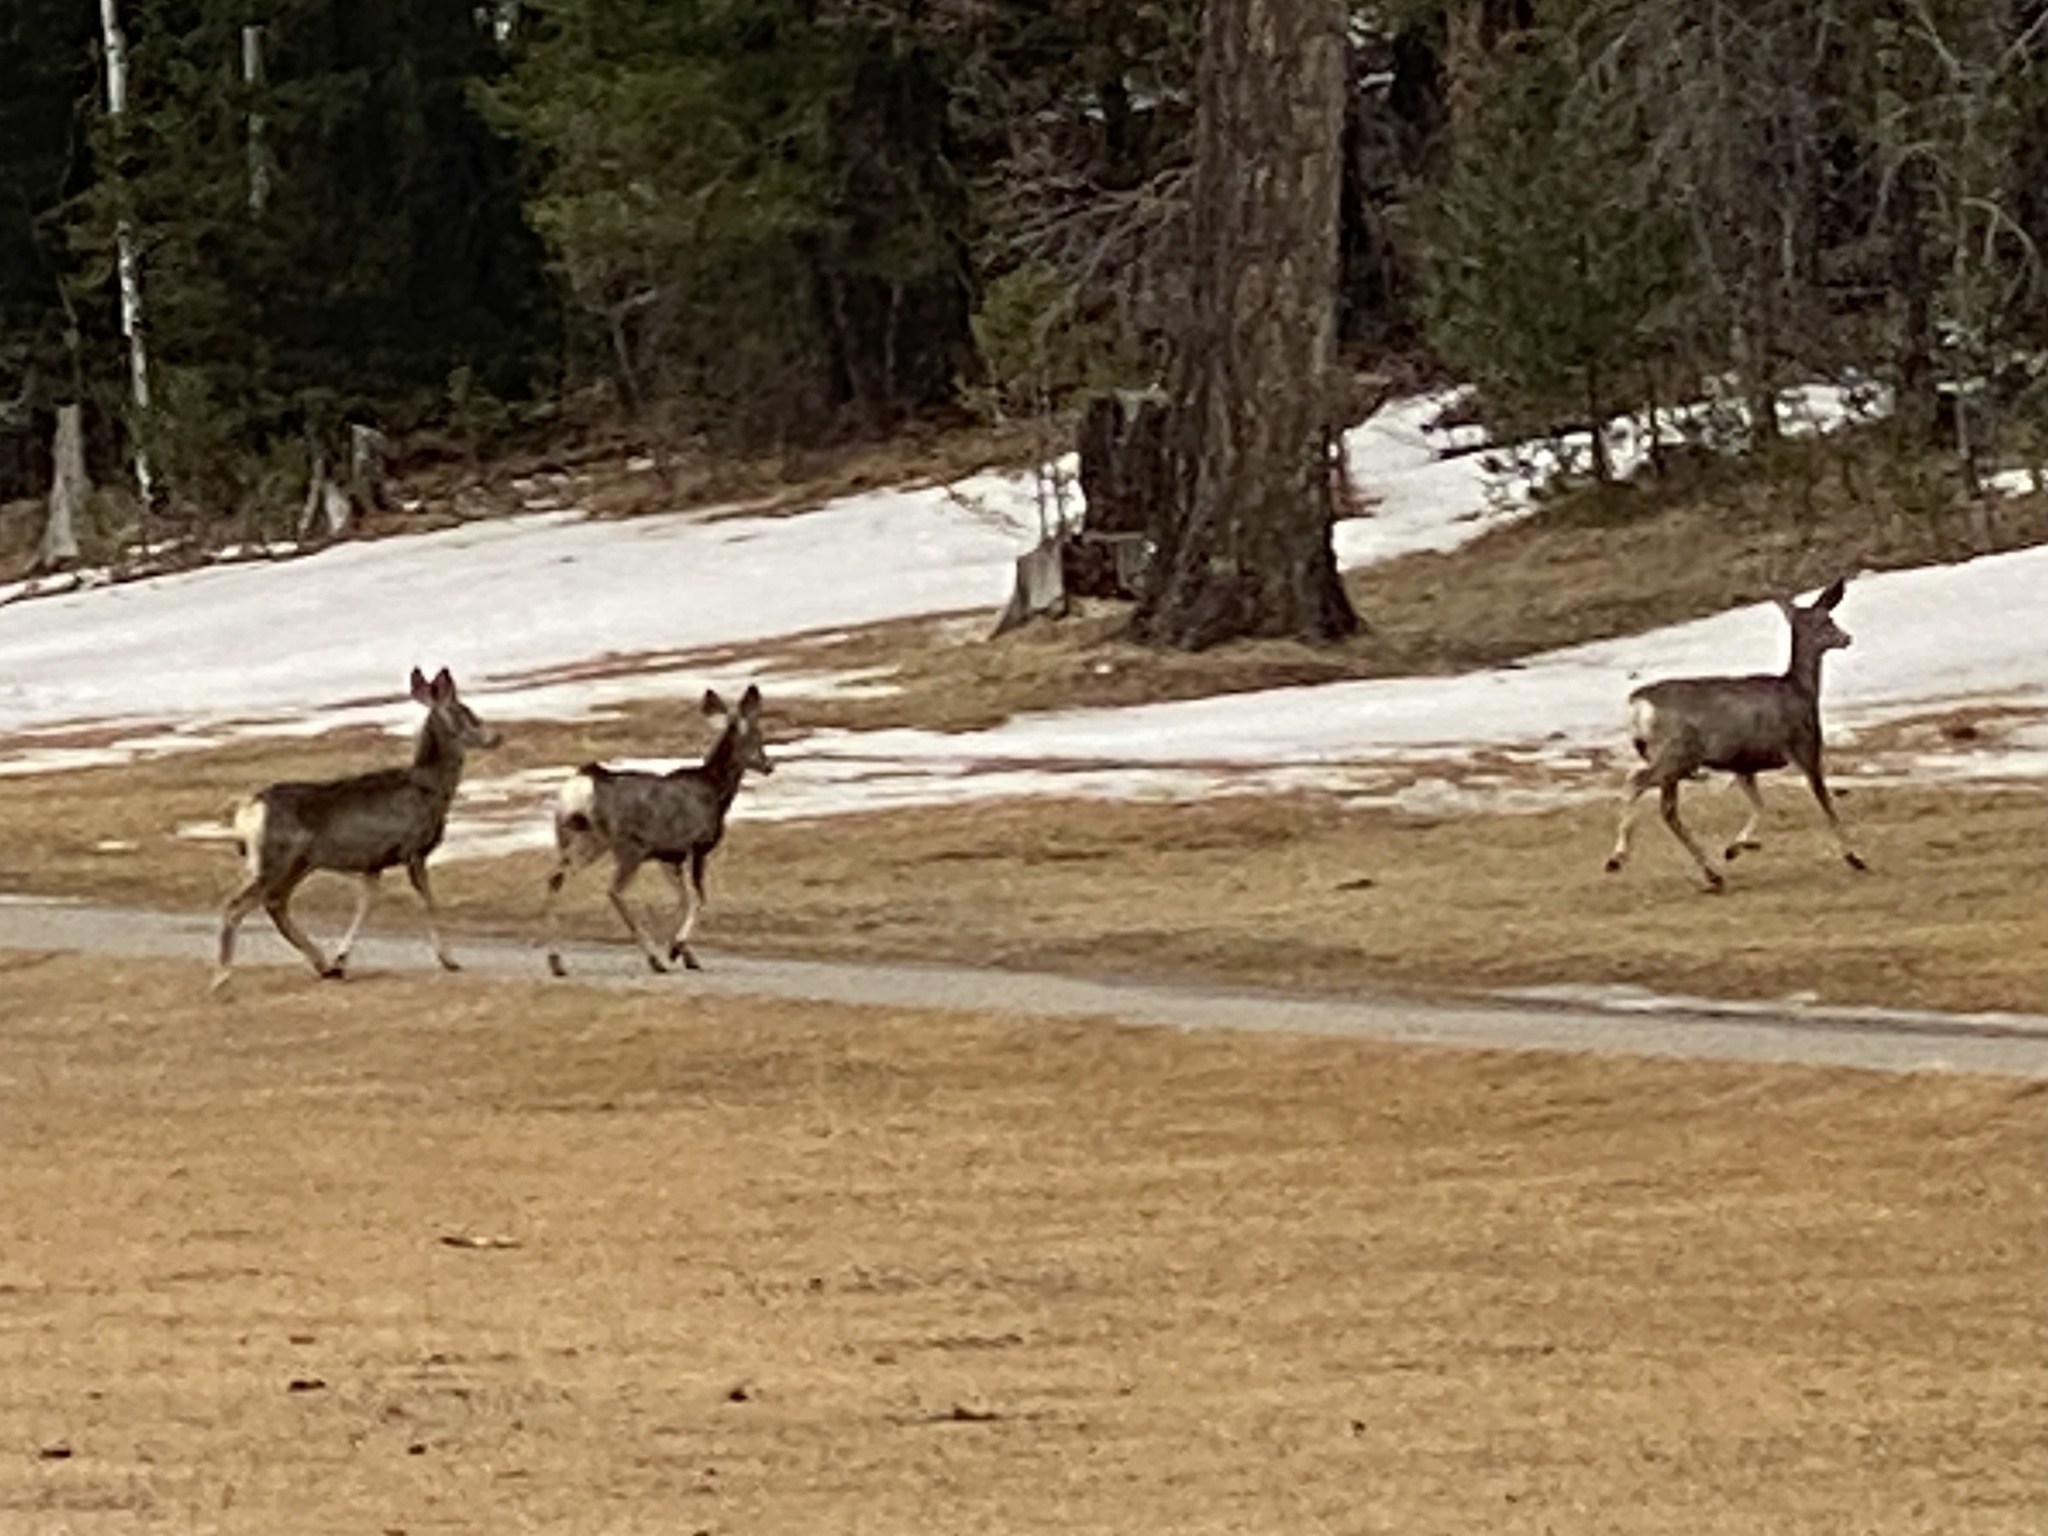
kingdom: Animalia
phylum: Chordata
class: Mammalia
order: Artiodactyla
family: Cervidae
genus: Odocoileus
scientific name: Odocoileus hemionus
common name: Mule deer
